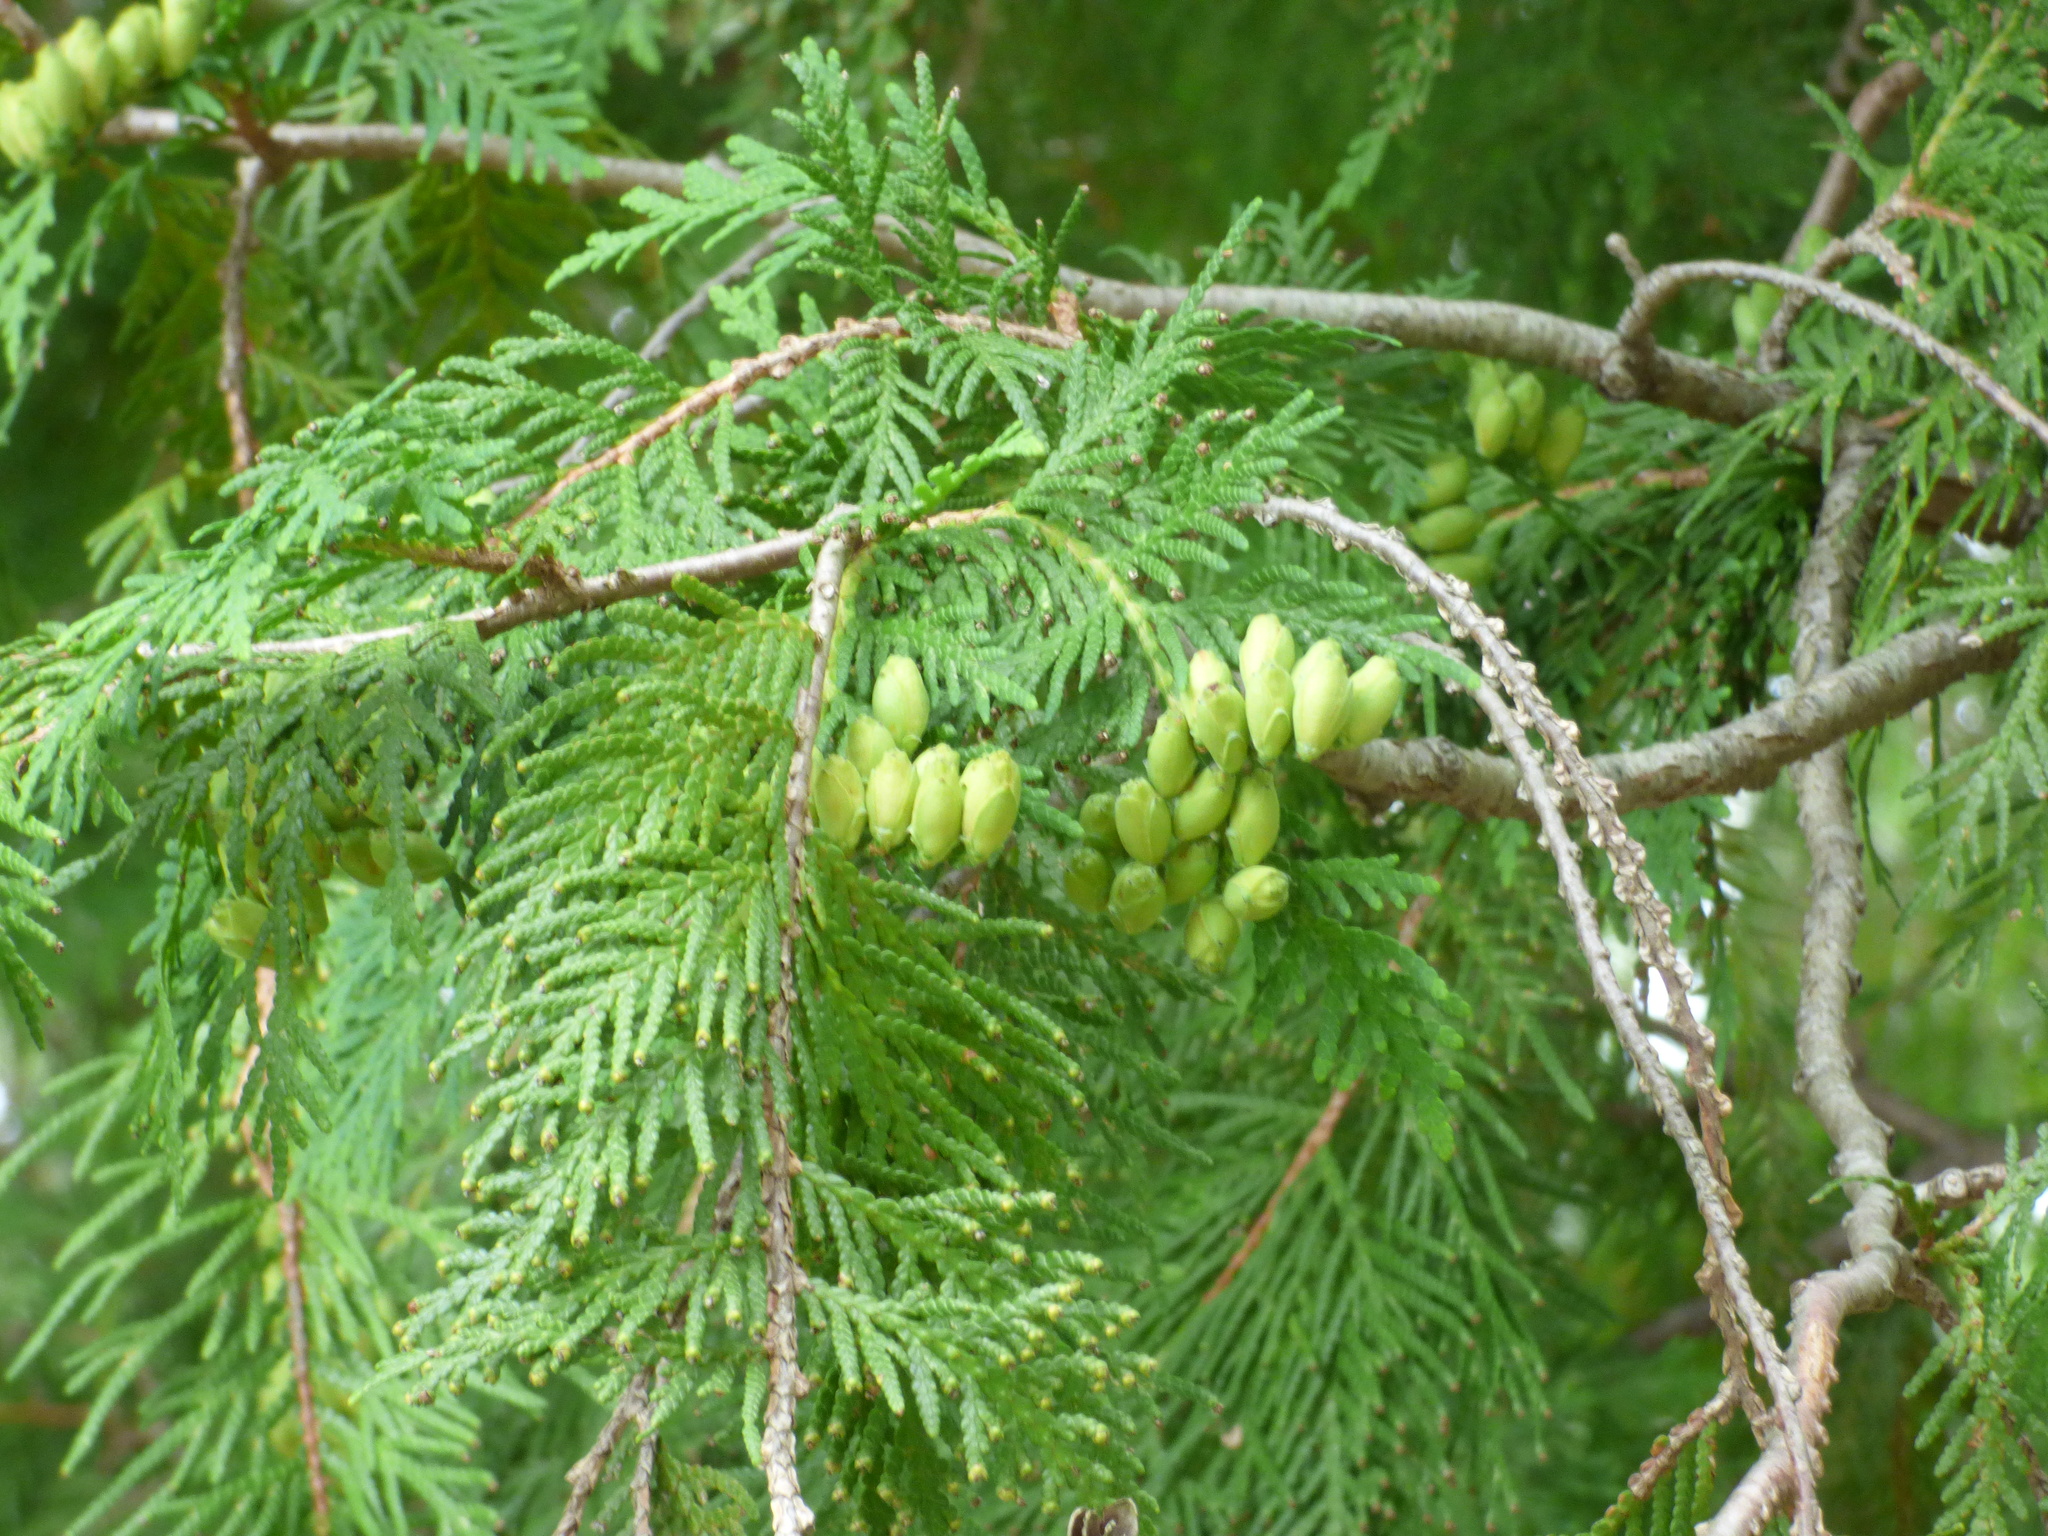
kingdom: Plantae
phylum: Tracheophyta
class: Pinopsida
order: Pinales
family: Cupressaceae
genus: Thuja
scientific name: Thuja occidentalis
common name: Northern white-cedar
